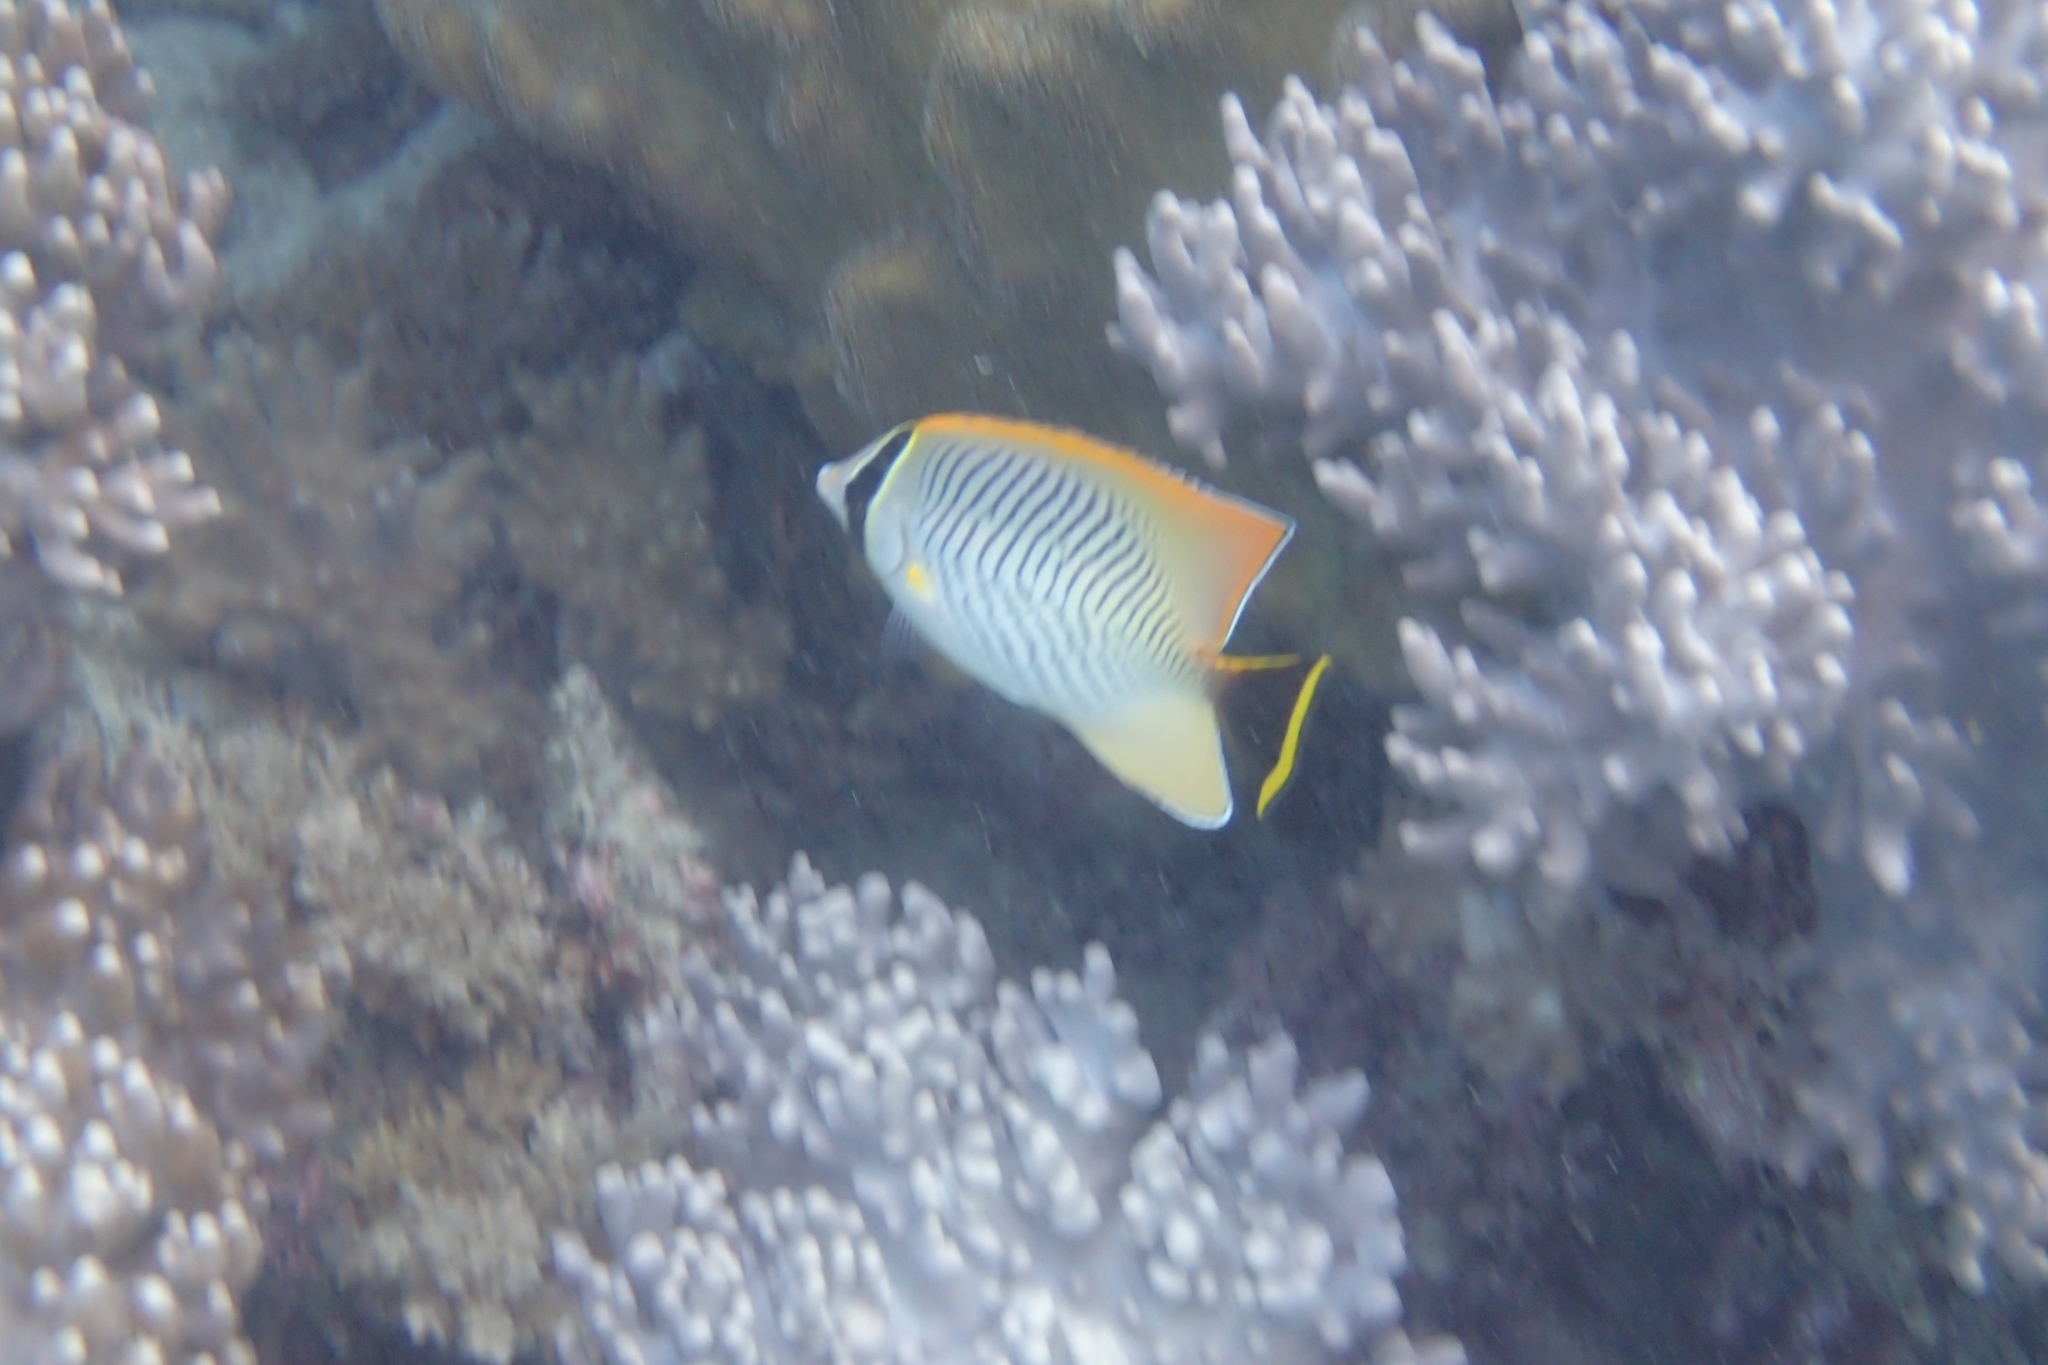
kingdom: Animalia
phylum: Chordata
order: Perciformes
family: Chaetodontidae
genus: Chaetodon
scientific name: Chaetodon trifascialis
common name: Chevroned butterflyfish
